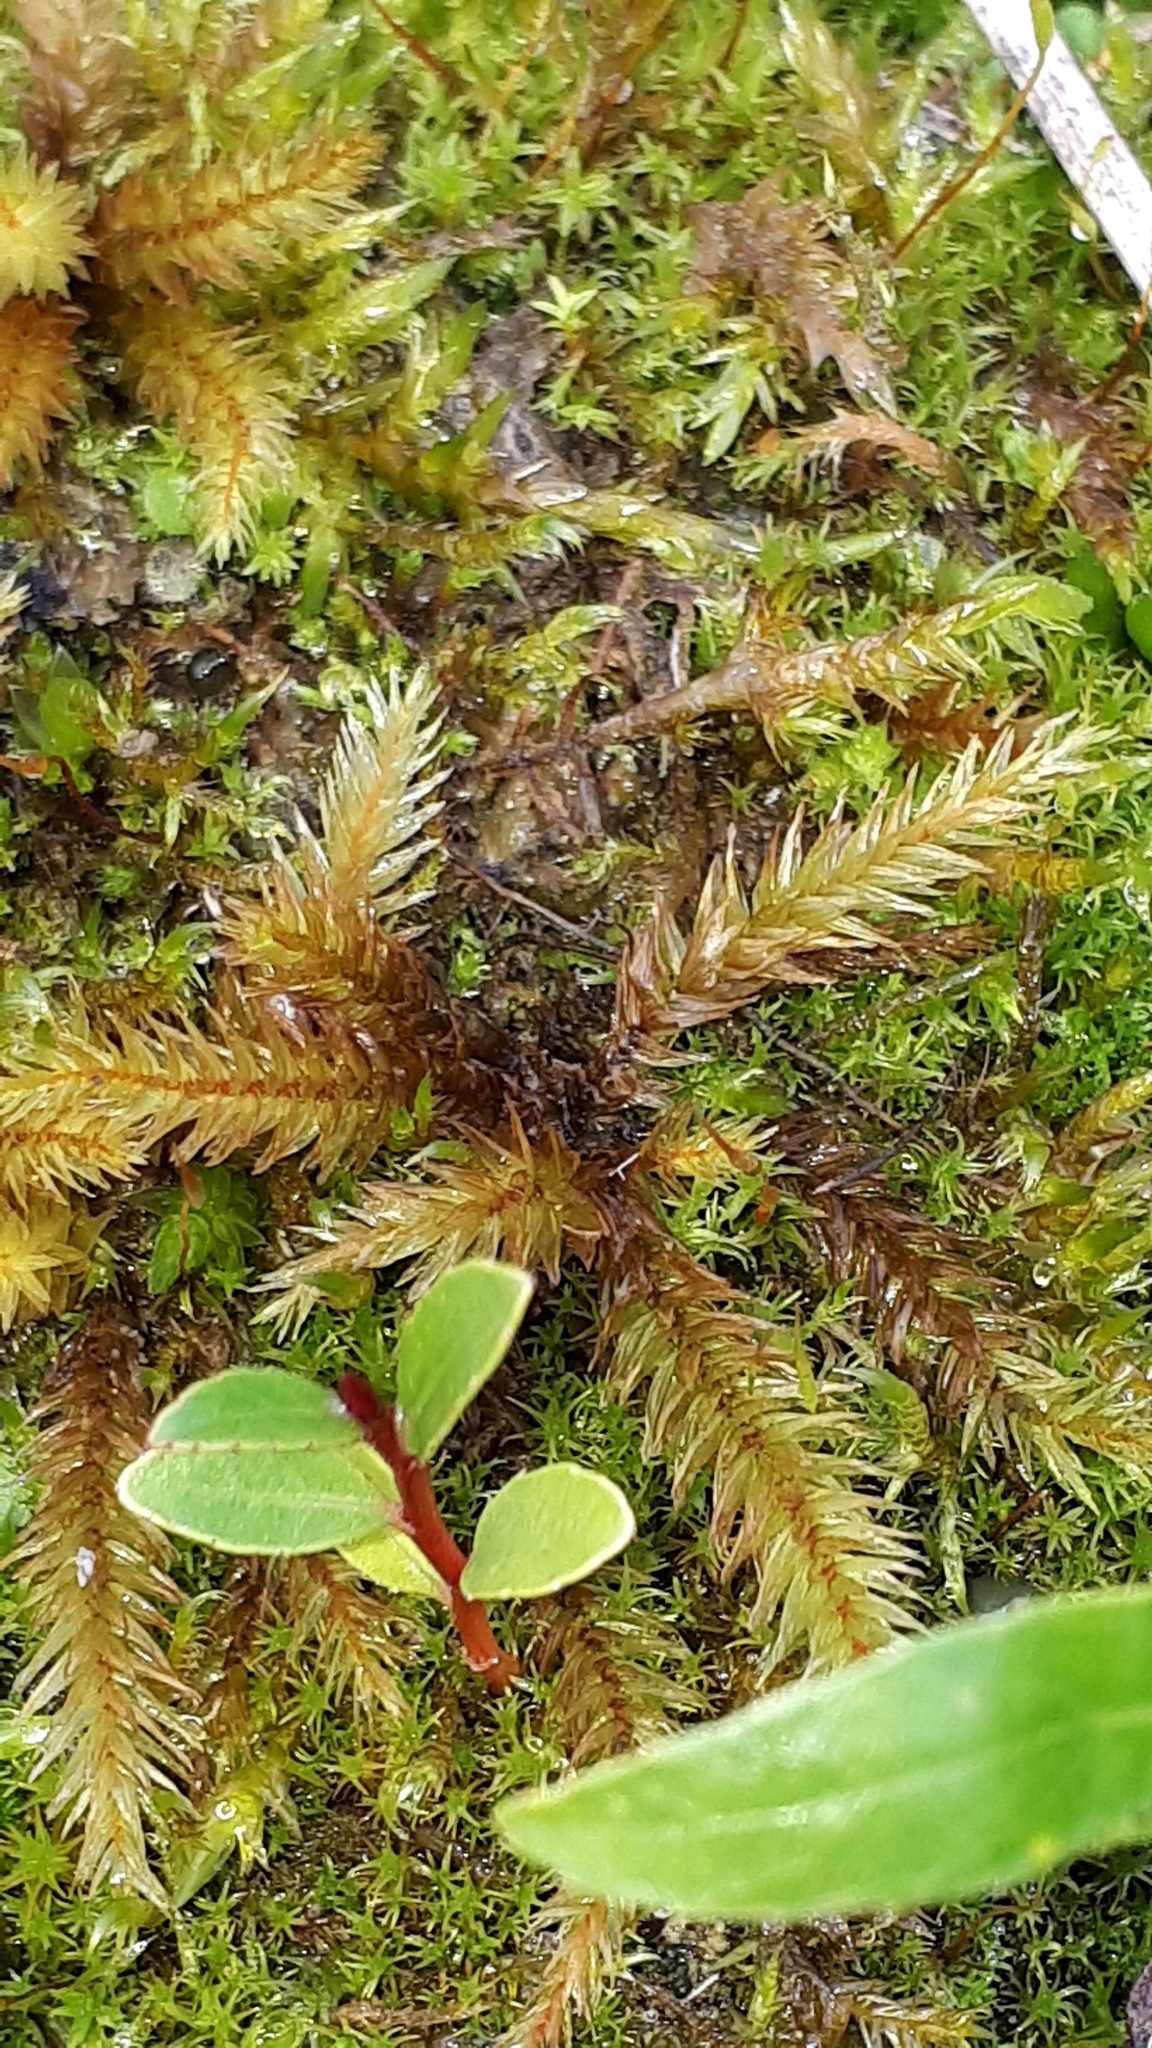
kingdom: Plantae
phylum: Bryophyta
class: Bryopsida
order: Hypnales
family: Climaciaceae
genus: Climacium
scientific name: Climacium dendroides
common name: Northern tree moss
